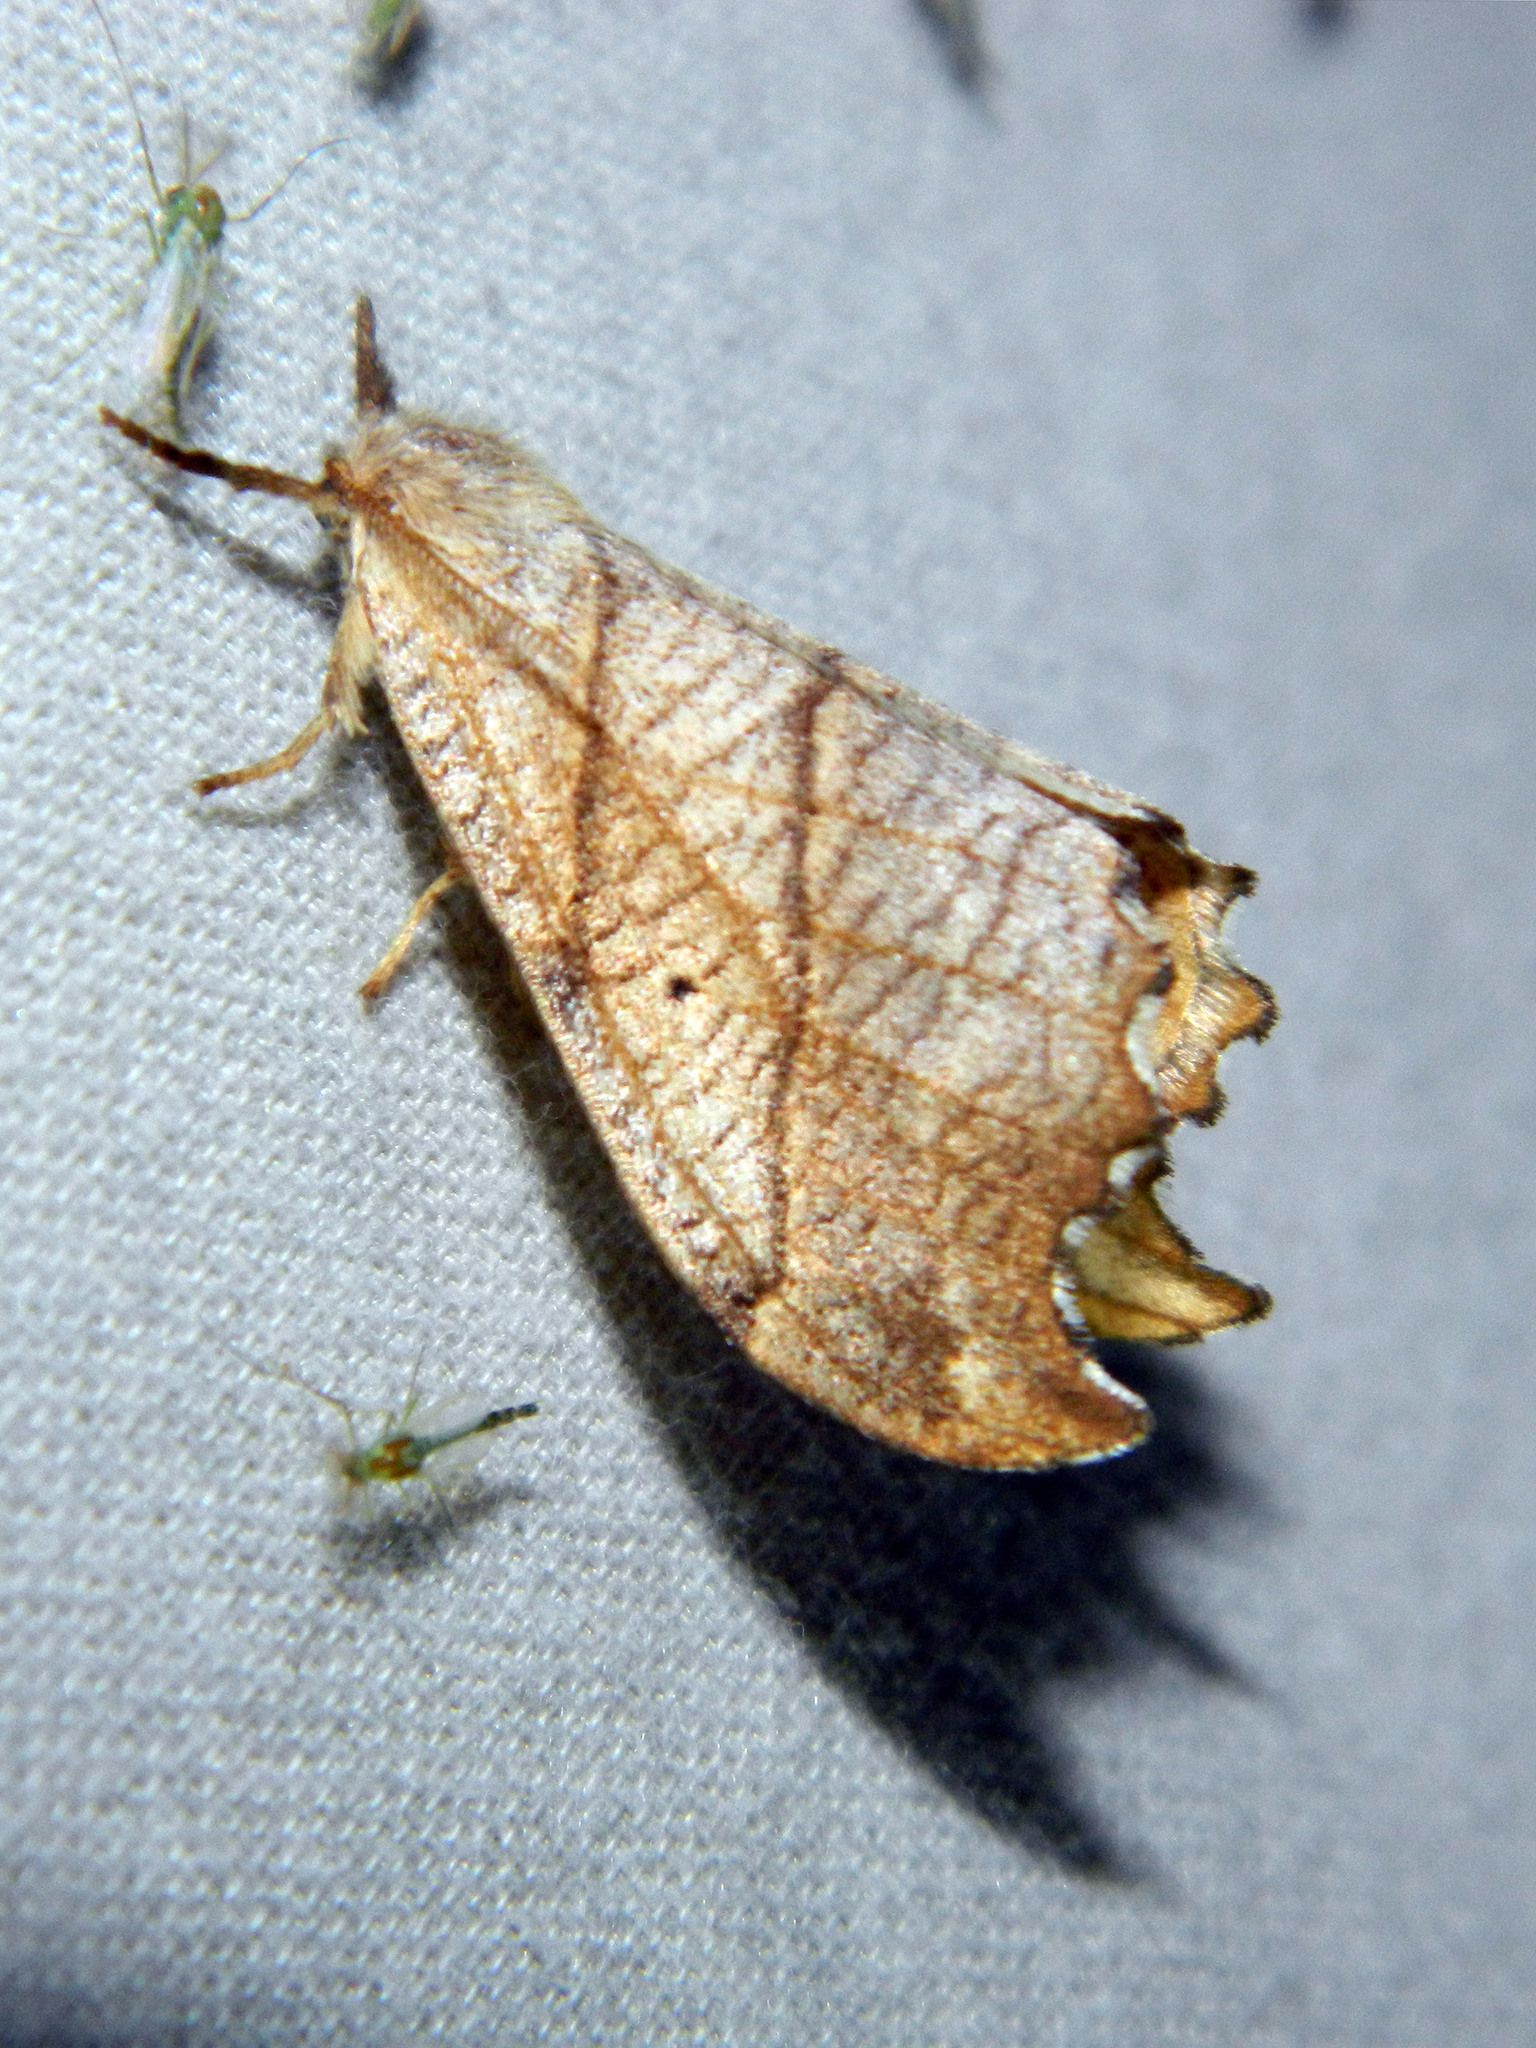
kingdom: Animalia
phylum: Arthropoda
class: Insecta
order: Lepidoptera
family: Drepanidae
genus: Falcaria
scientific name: Falcaria bilineata
